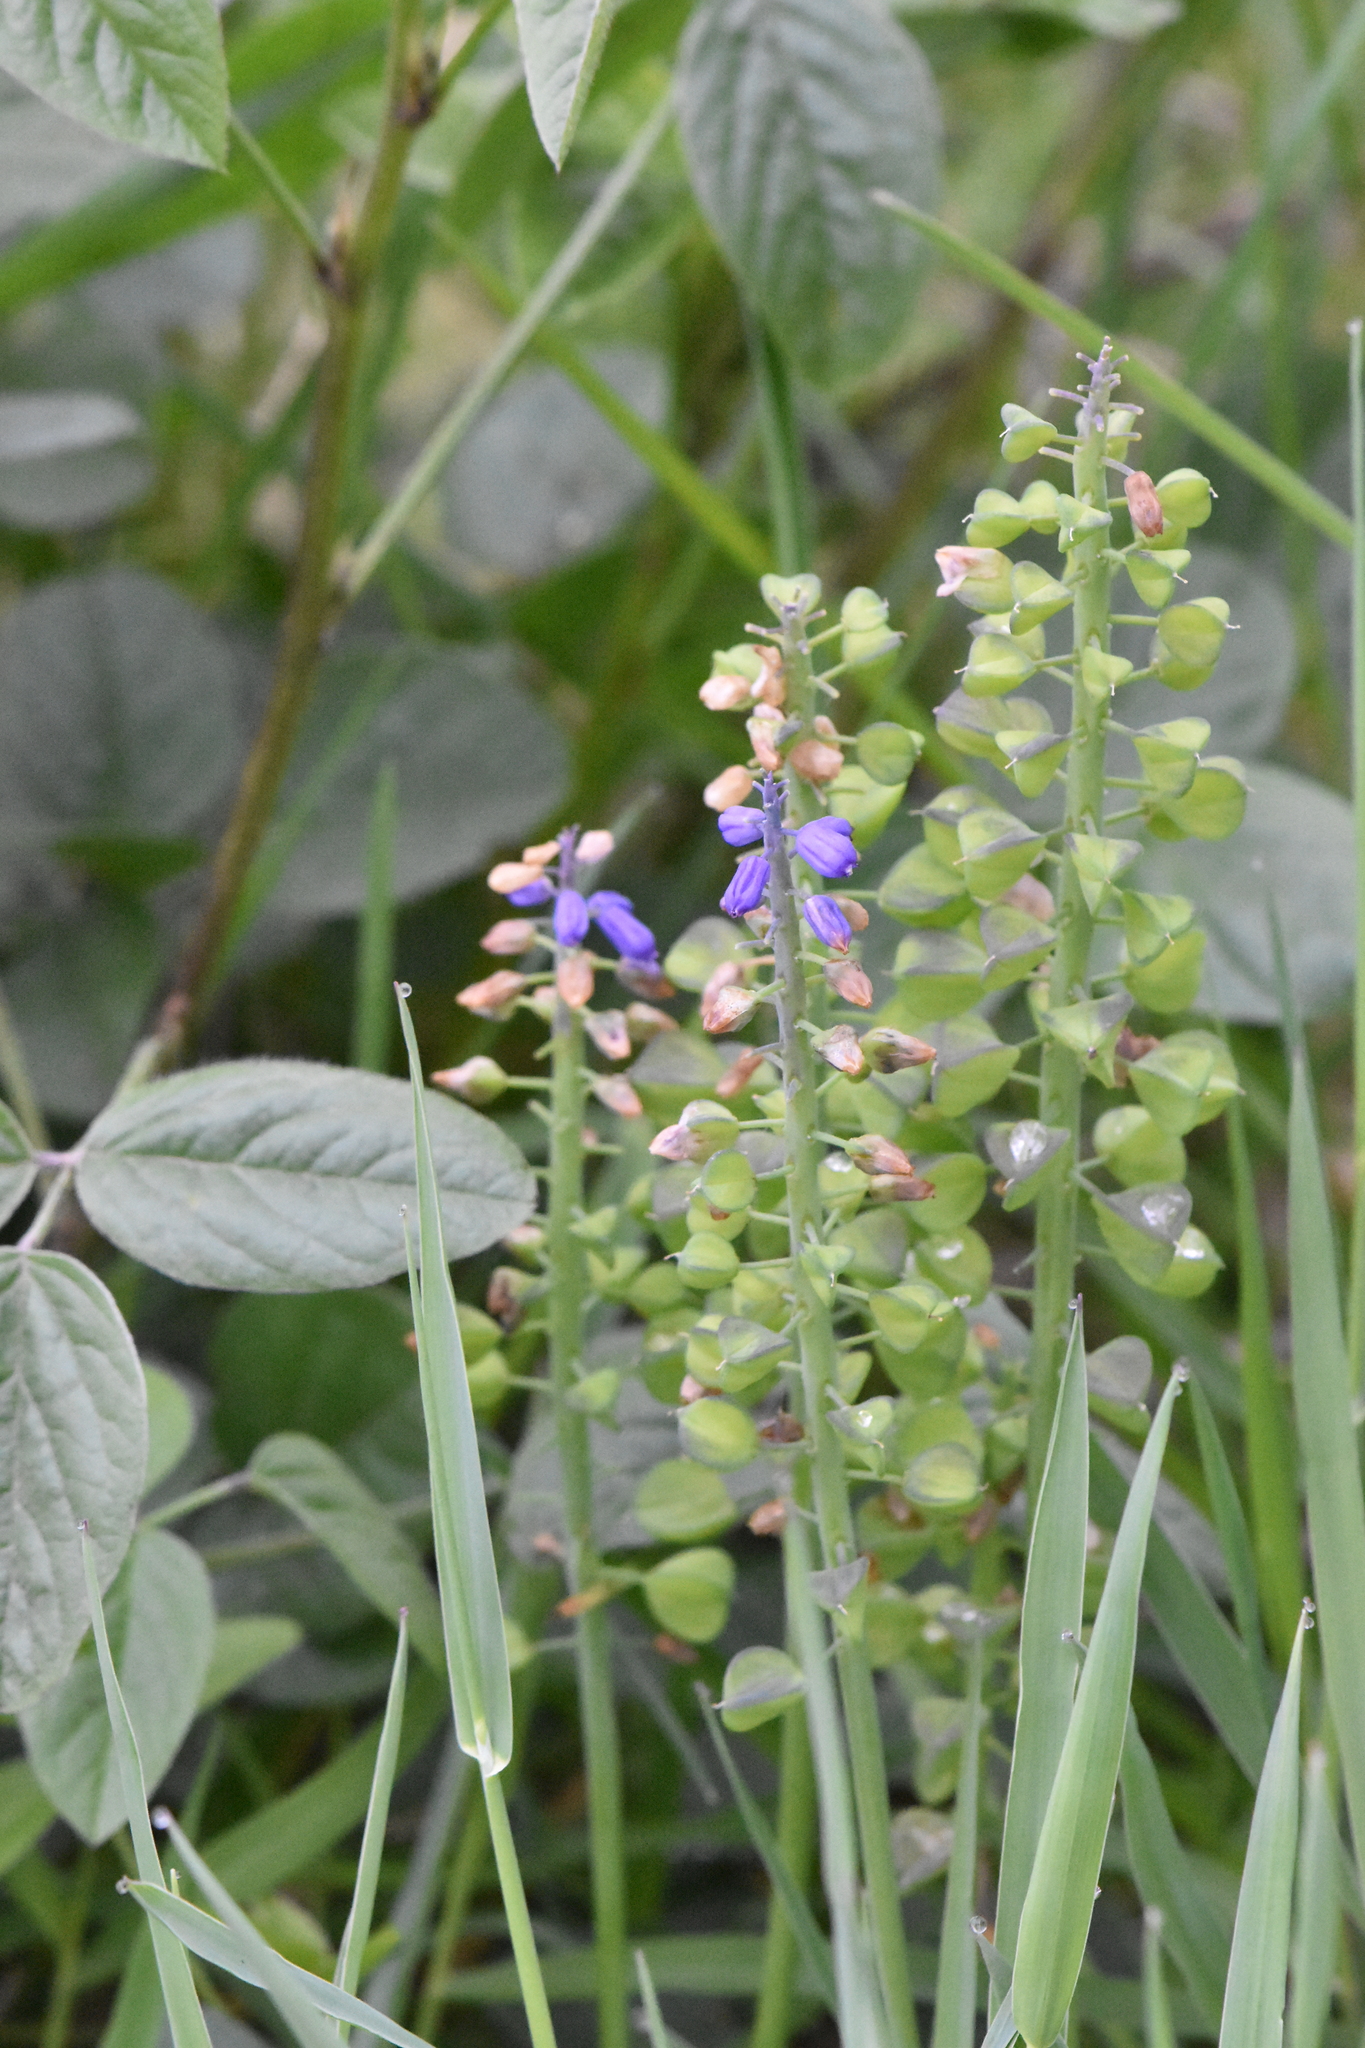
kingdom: Plantae
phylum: Tracheophyta
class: Liliopsida
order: Asparagales
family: Asparagaceae
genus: Muscari
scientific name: Muscari armeniacum
